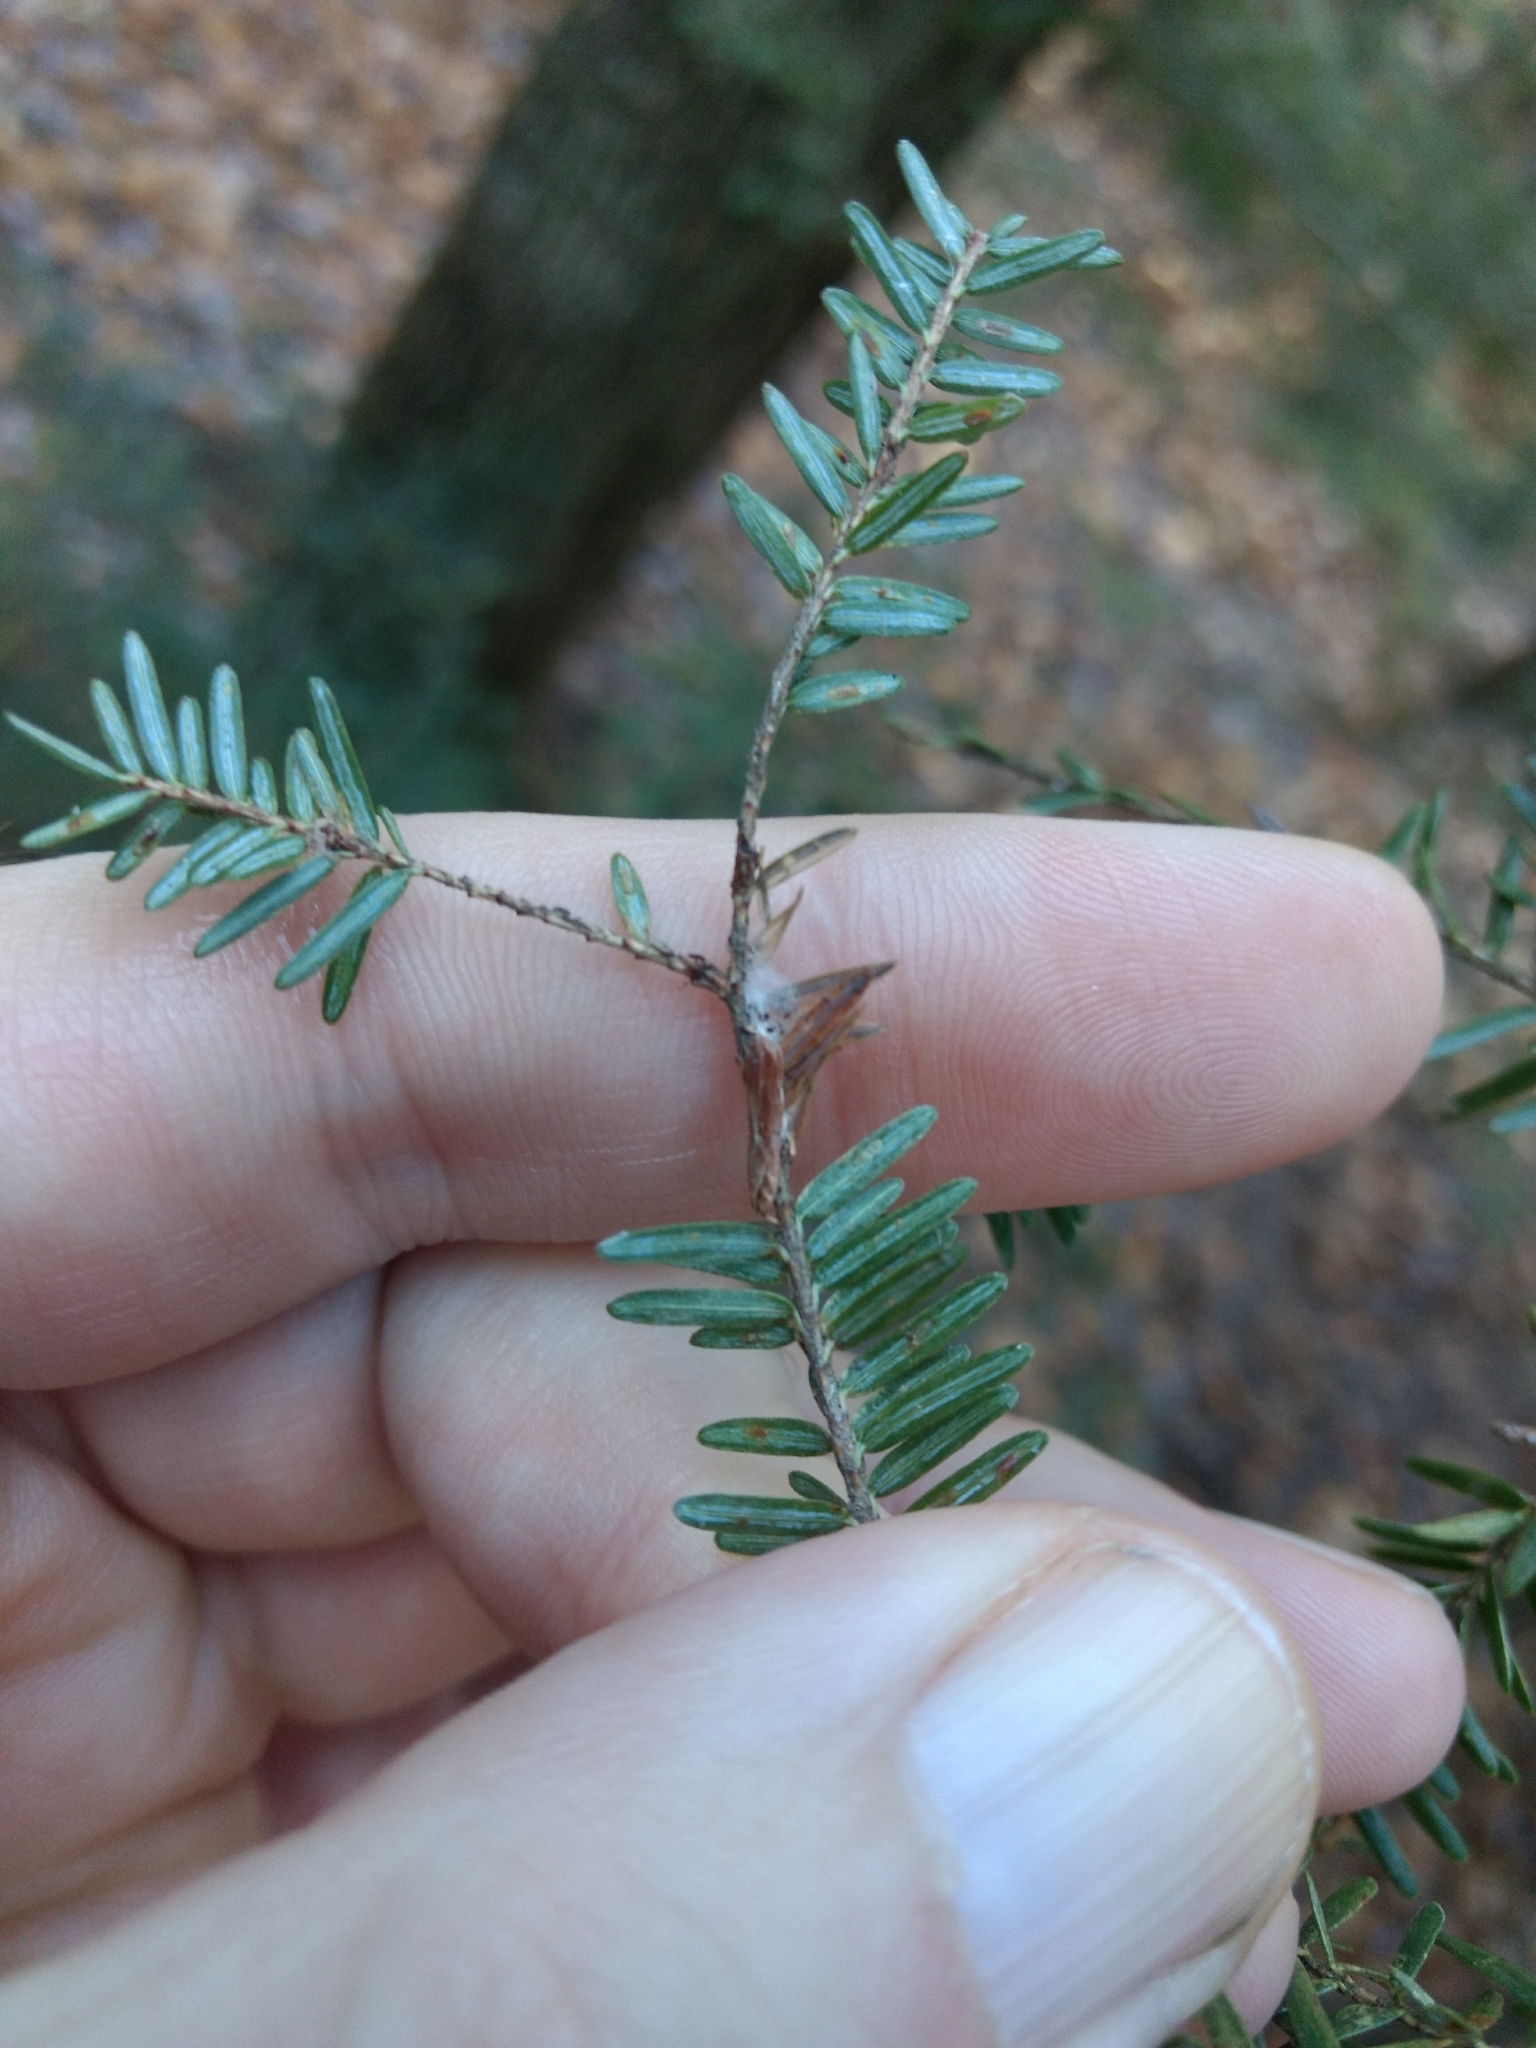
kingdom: Animalia
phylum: Arthropoda
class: Insecta
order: Hemiptera
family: Diaspididae
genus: Fiorinia
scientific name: Fiorinia externa
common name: Elongate hemlock scale
